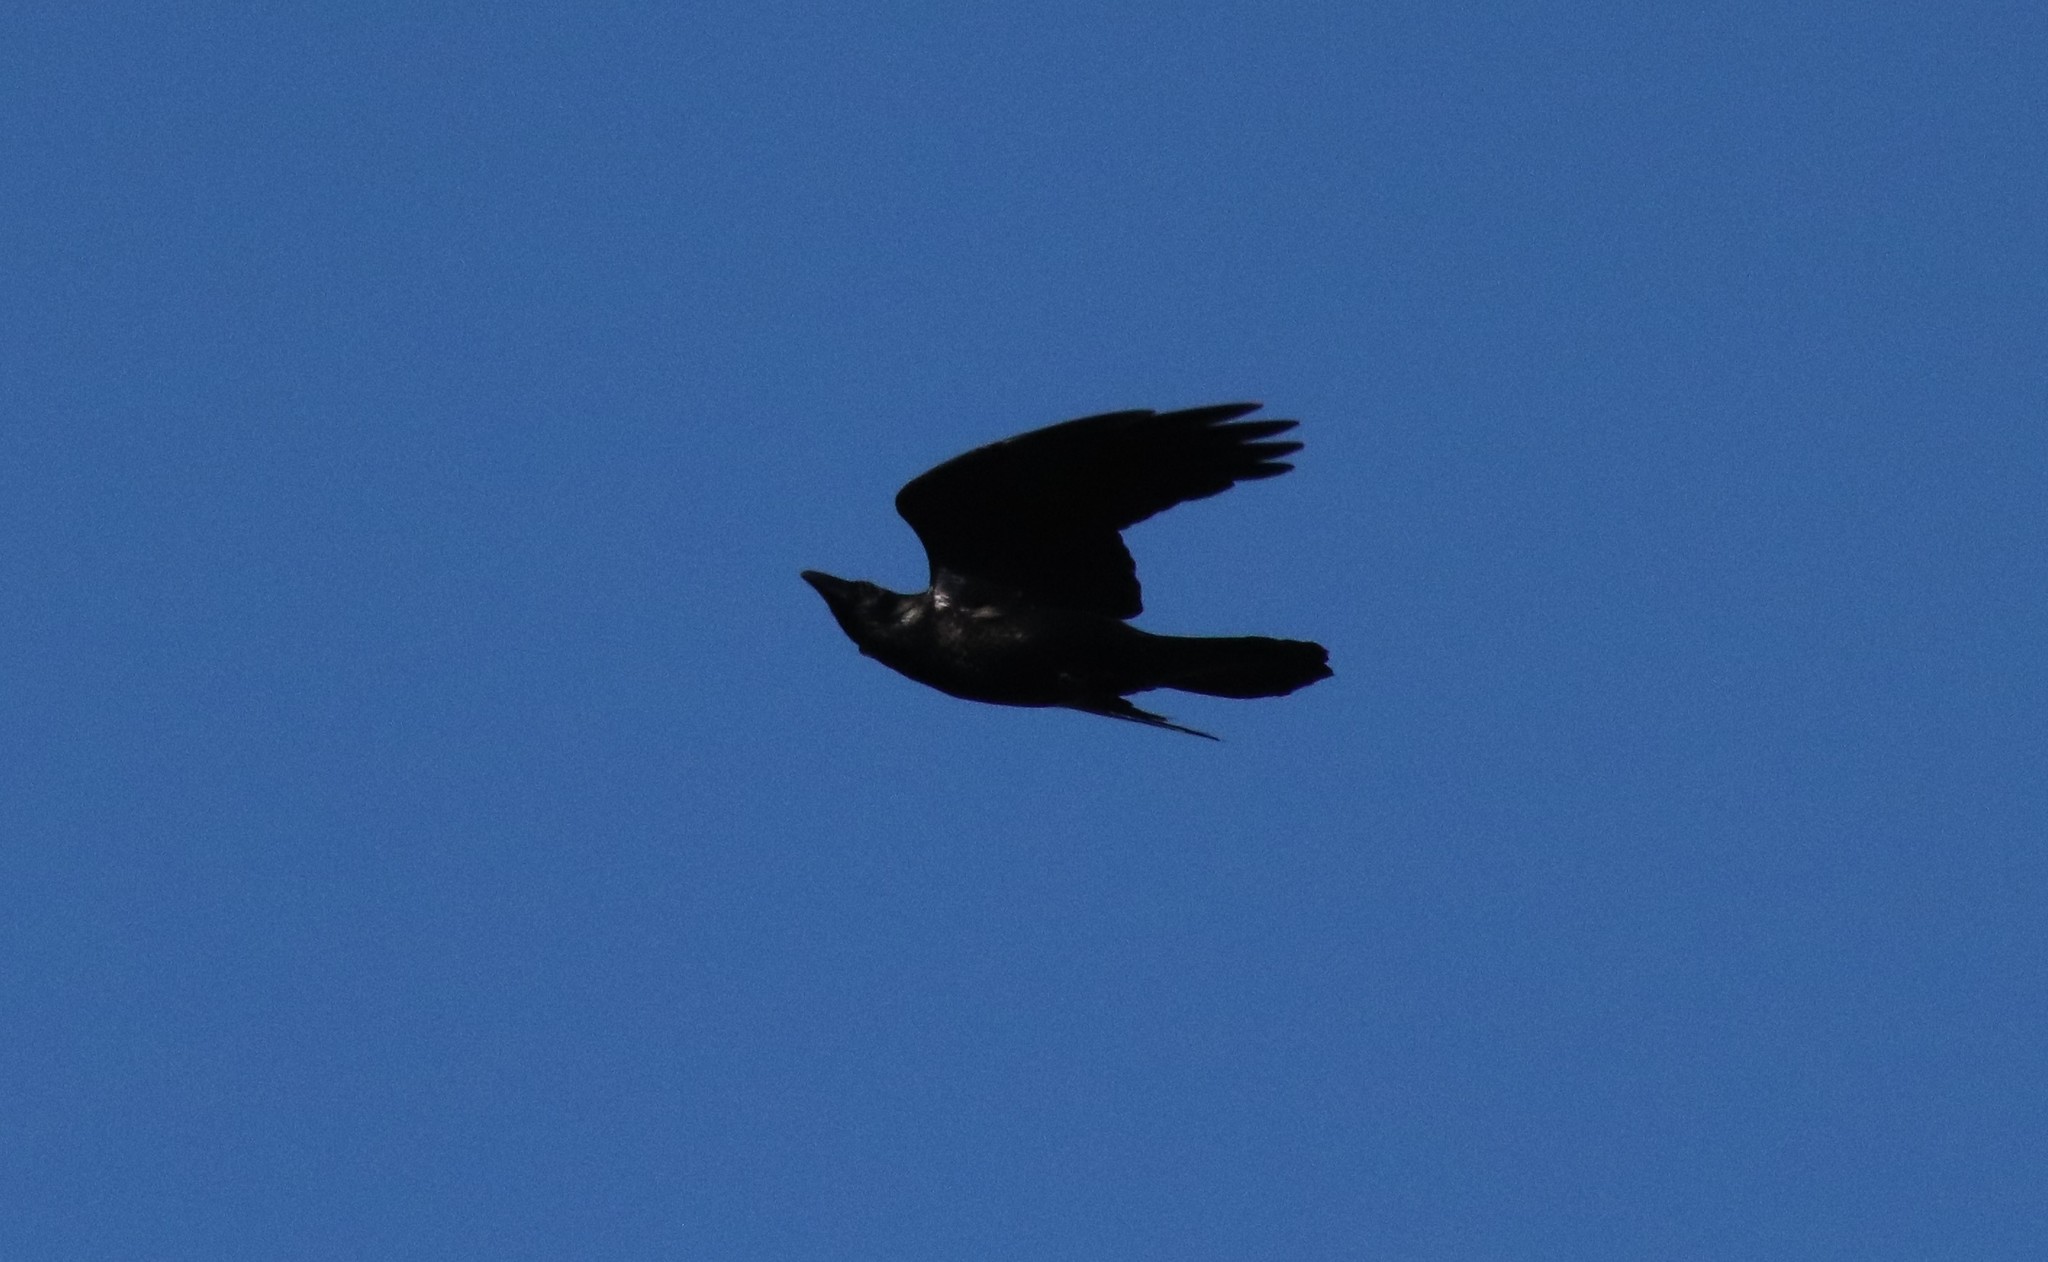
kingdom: Animalia
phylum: Chordata
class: Aves
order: Passeriformes
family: Corvidae
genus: Corvus
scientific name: Corvus corax
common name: Common raven
